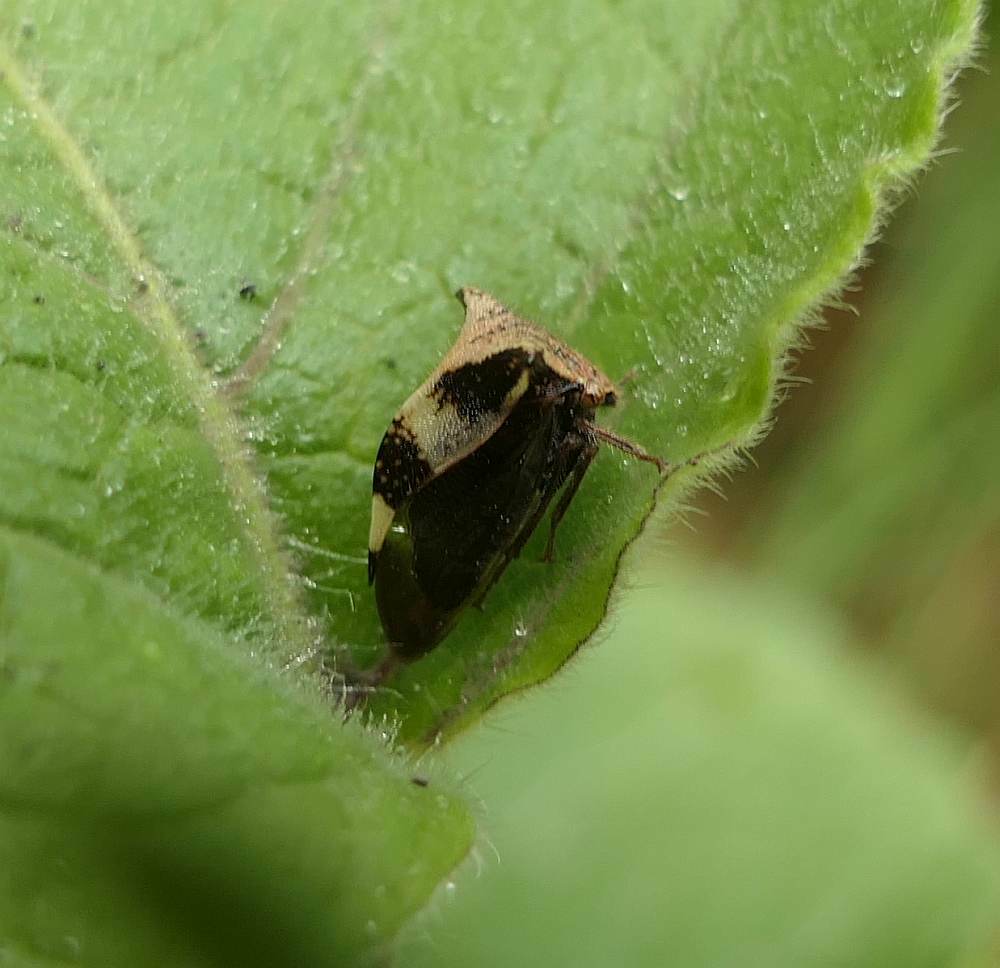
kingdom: Animalia
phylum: Arthropoda
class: Insecta
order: Hemiptera
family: Membracidae
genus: Stictocephala
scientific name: Stictocephala diceros
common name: Two-horned treehopper
